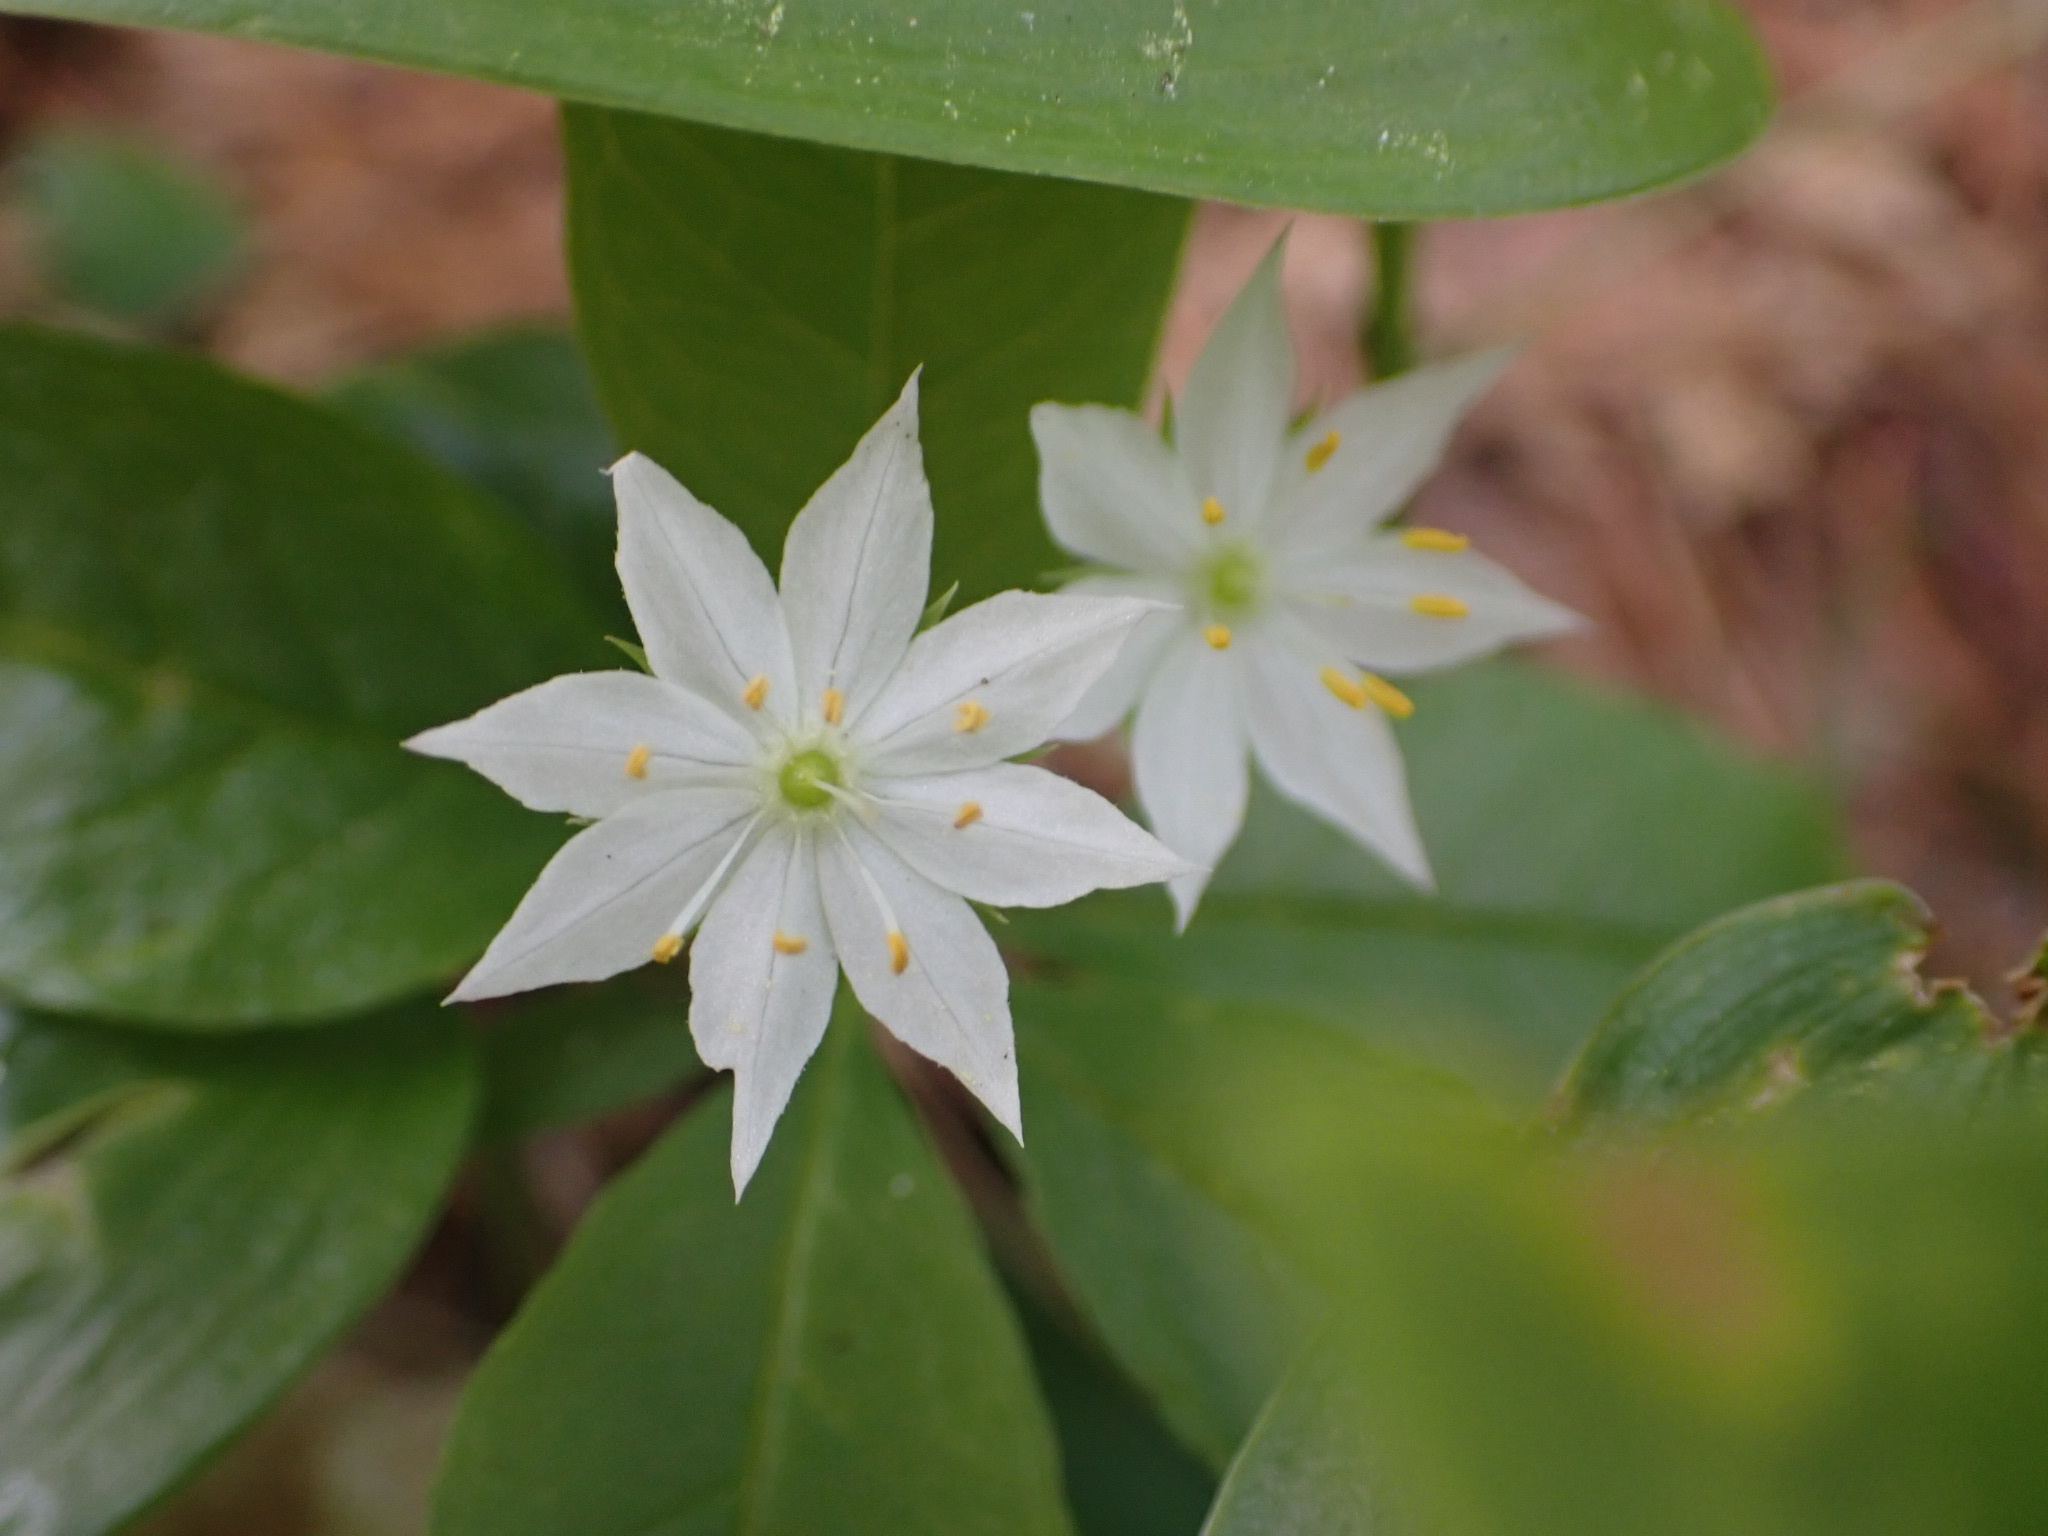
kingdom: Plantae
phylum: Tracheophyta
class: Magnoliopsida
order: Ericales
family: Primulaceae
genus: Lysimachia
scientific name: Lysimachia borealis
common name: American starflower
